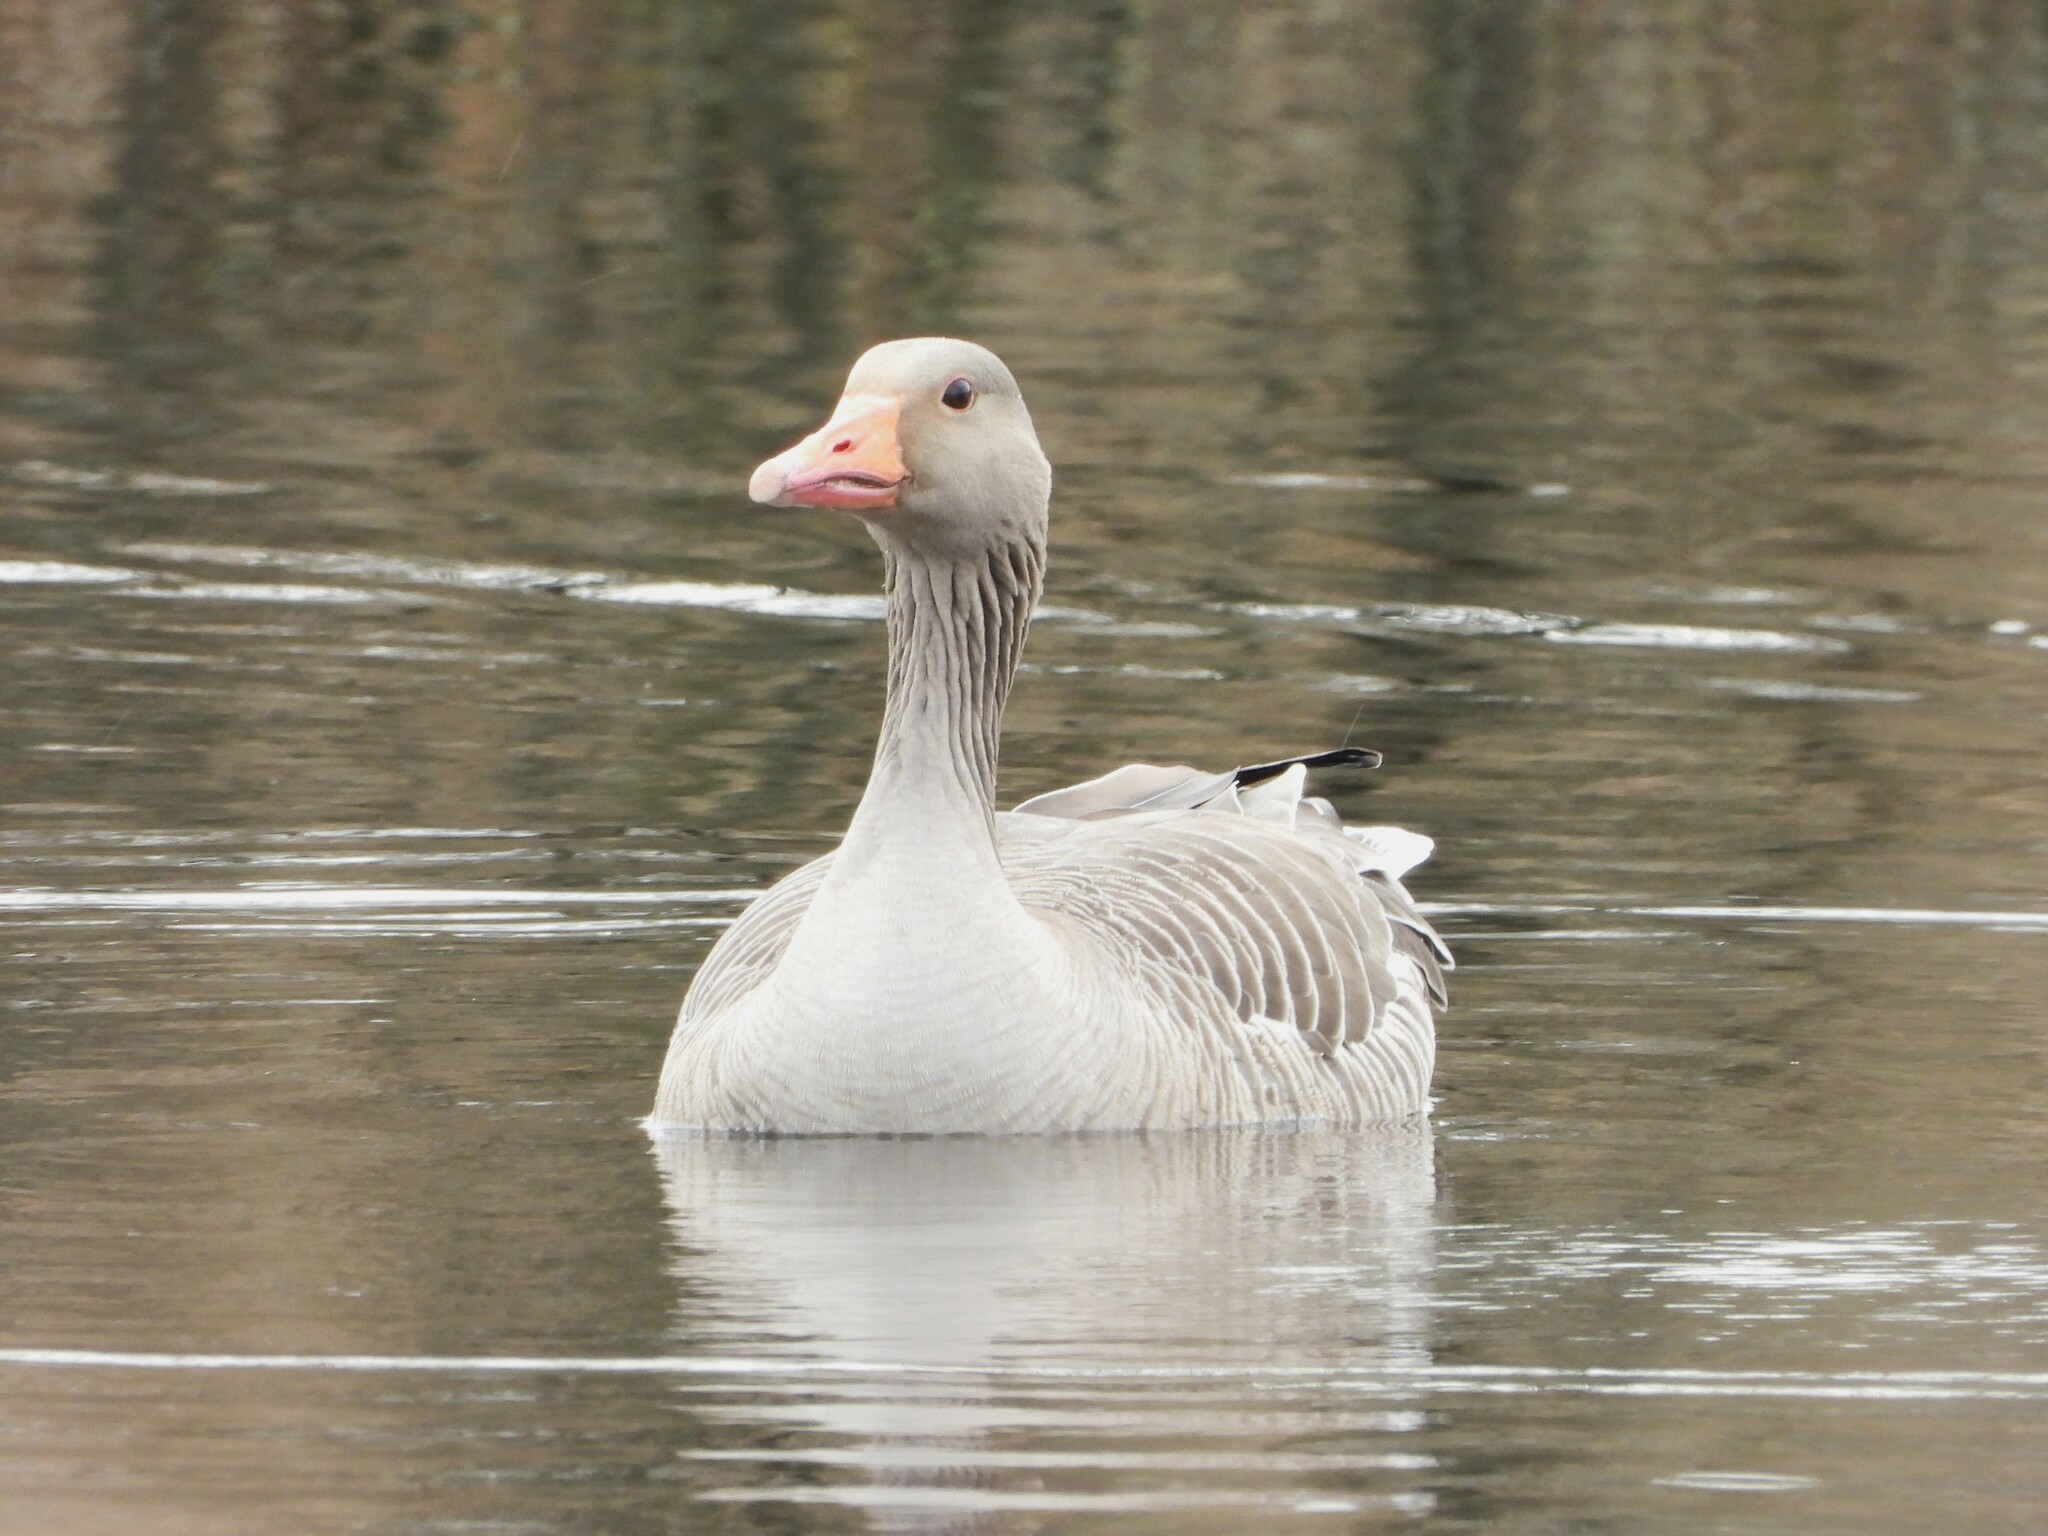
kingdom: Animalia
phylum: Chordata
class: Aves
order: Anseriformes
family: Anatidae
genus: Anser
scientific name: Anser anser
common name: Greylag goose
